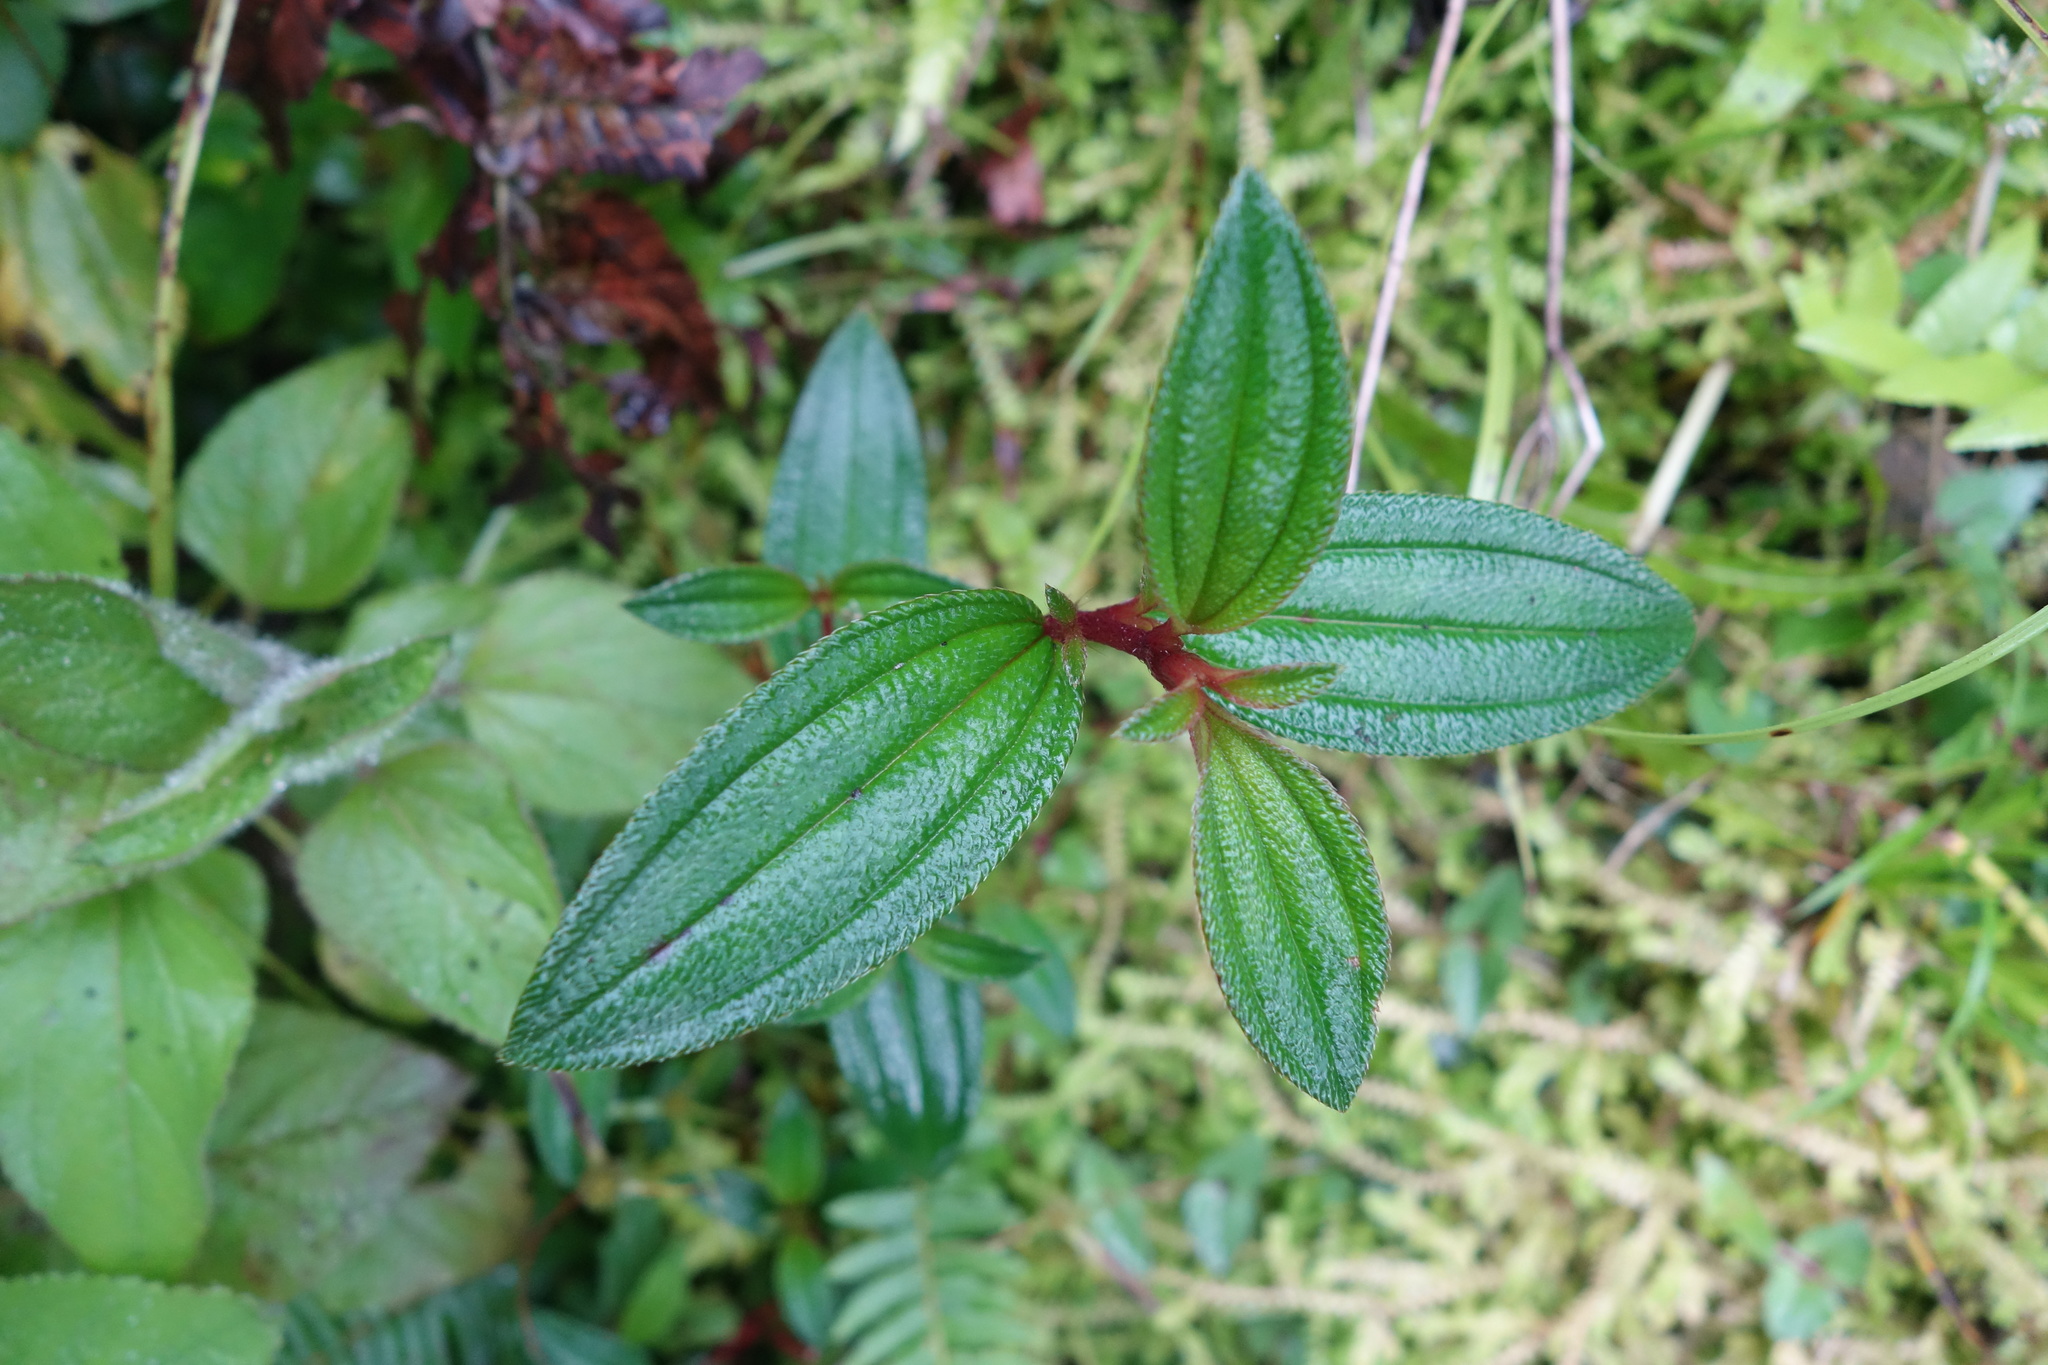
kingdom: Plantae
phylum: Tracheophyta
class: Magnoliopsida
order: Myrtales
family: Melastomataceae
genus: Melastoma
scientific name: Melastoma scaberrima
